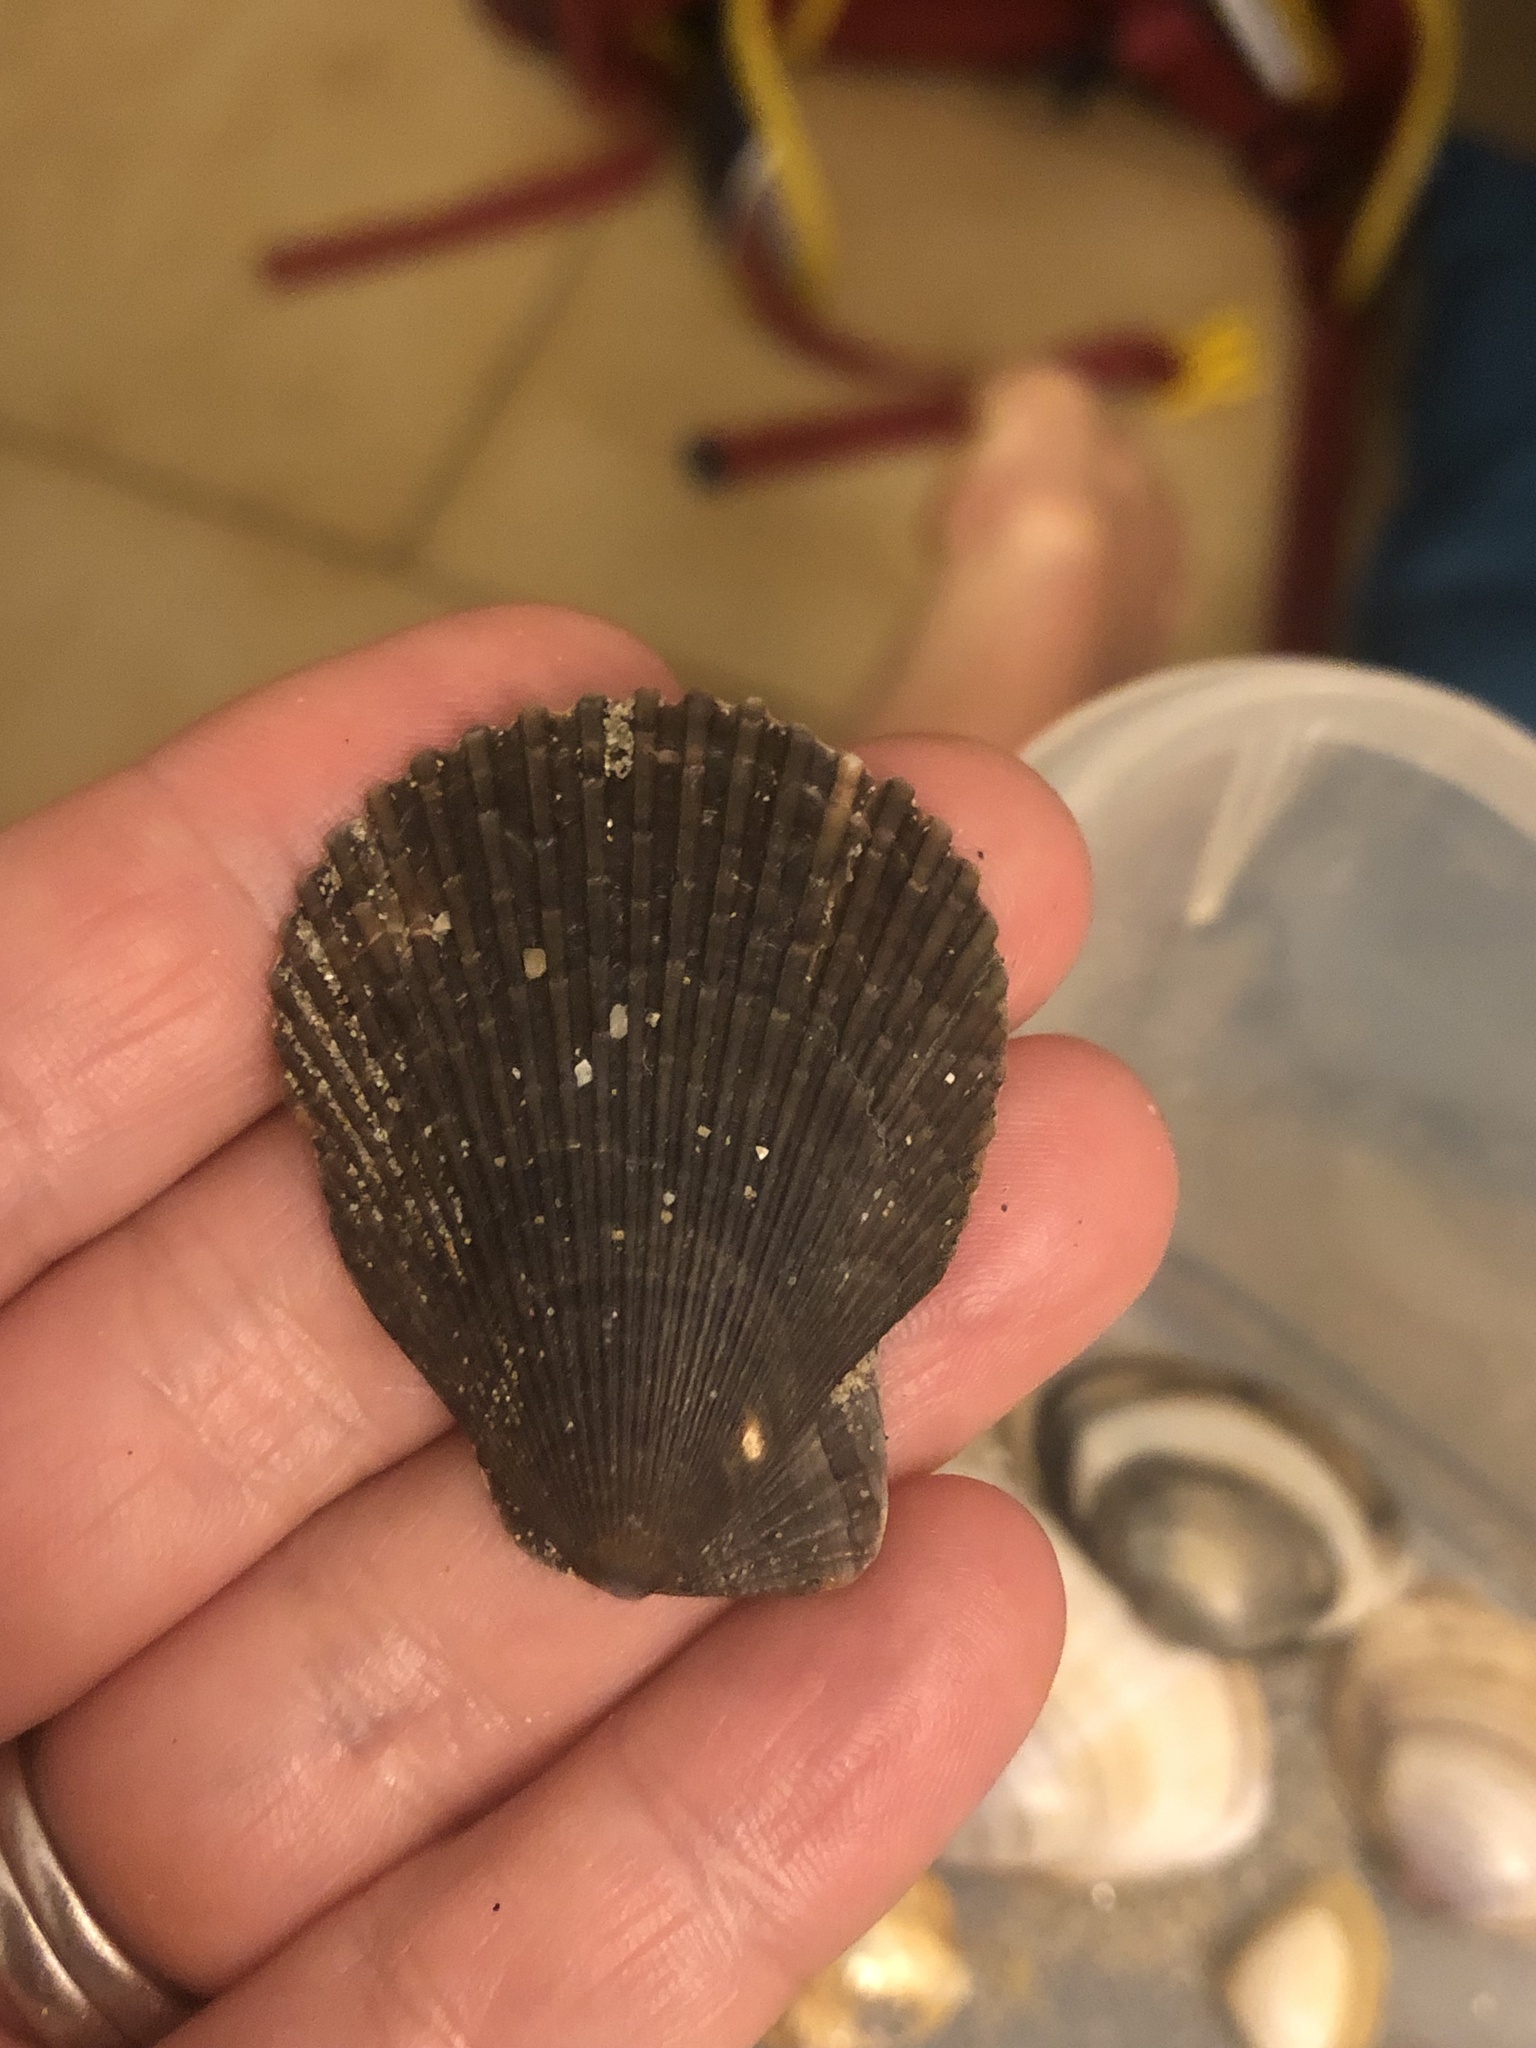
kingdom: Animalia
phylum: Mollusca
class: Bivalvia
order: Pectinida
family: Pectinidae
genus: Mimachlamys
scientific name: Mimachlamys varia
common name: Variegated scallop
